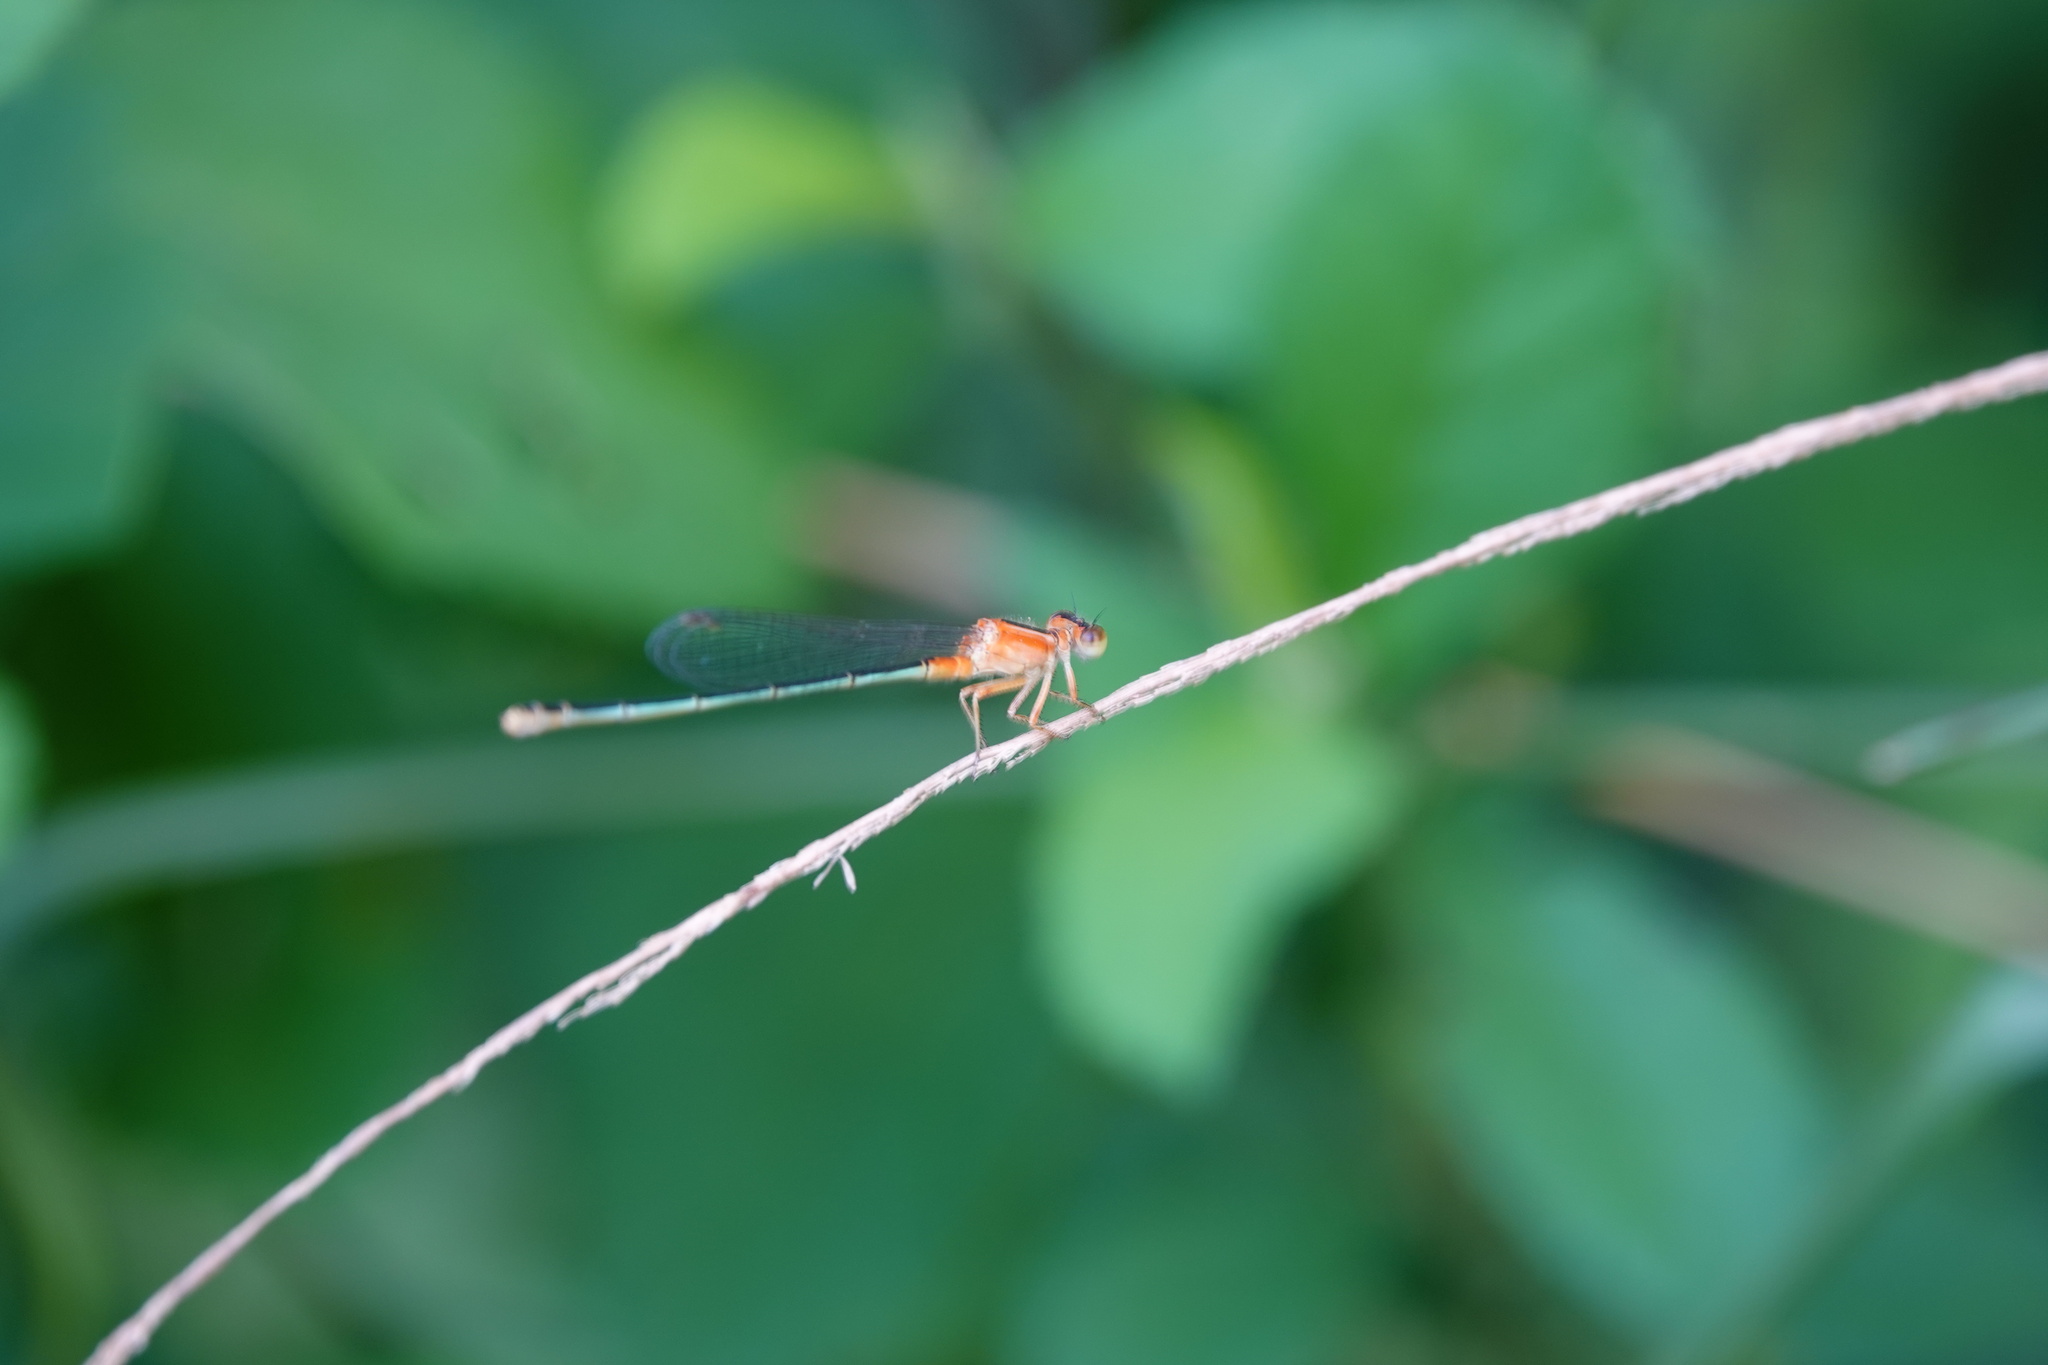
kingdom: Animalia
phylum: Arthropoda
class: Insecta
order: Odonata
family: Coenagrionidae
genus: Ischnura
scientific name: Ischnura senegalensis
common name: Tropical bluetail
